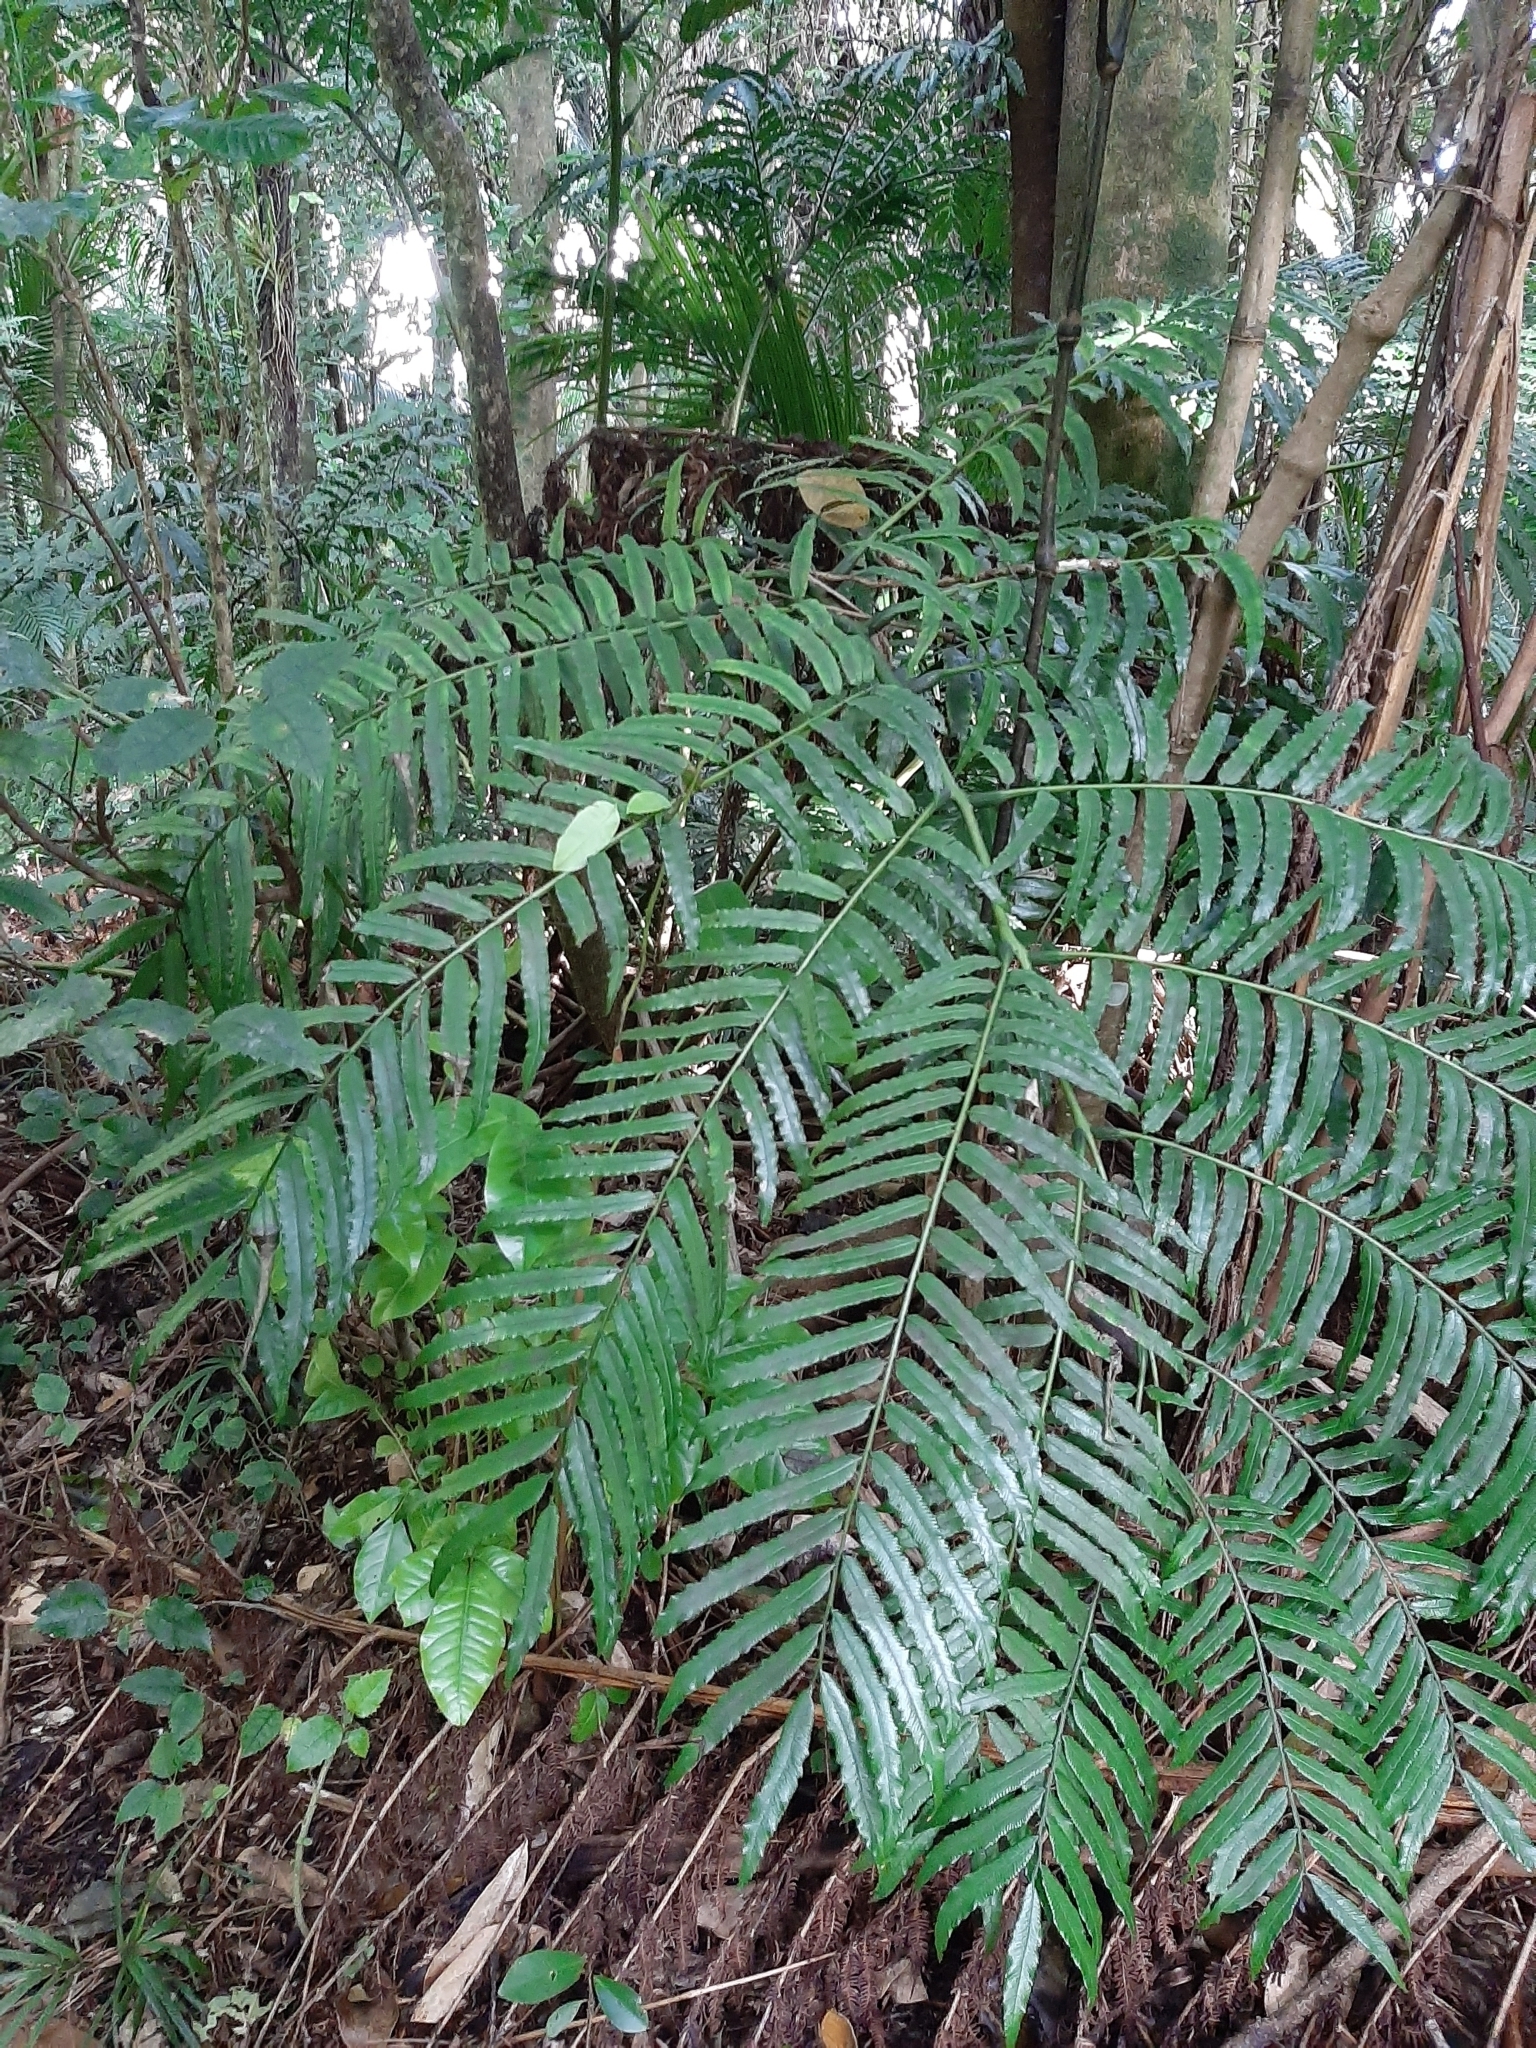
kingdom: Plantae
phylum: Tracheophyta
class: Polypodiopsida
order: Marattiales
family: Marattiaceae
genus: Ptisana
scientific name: Ptisana salicina
